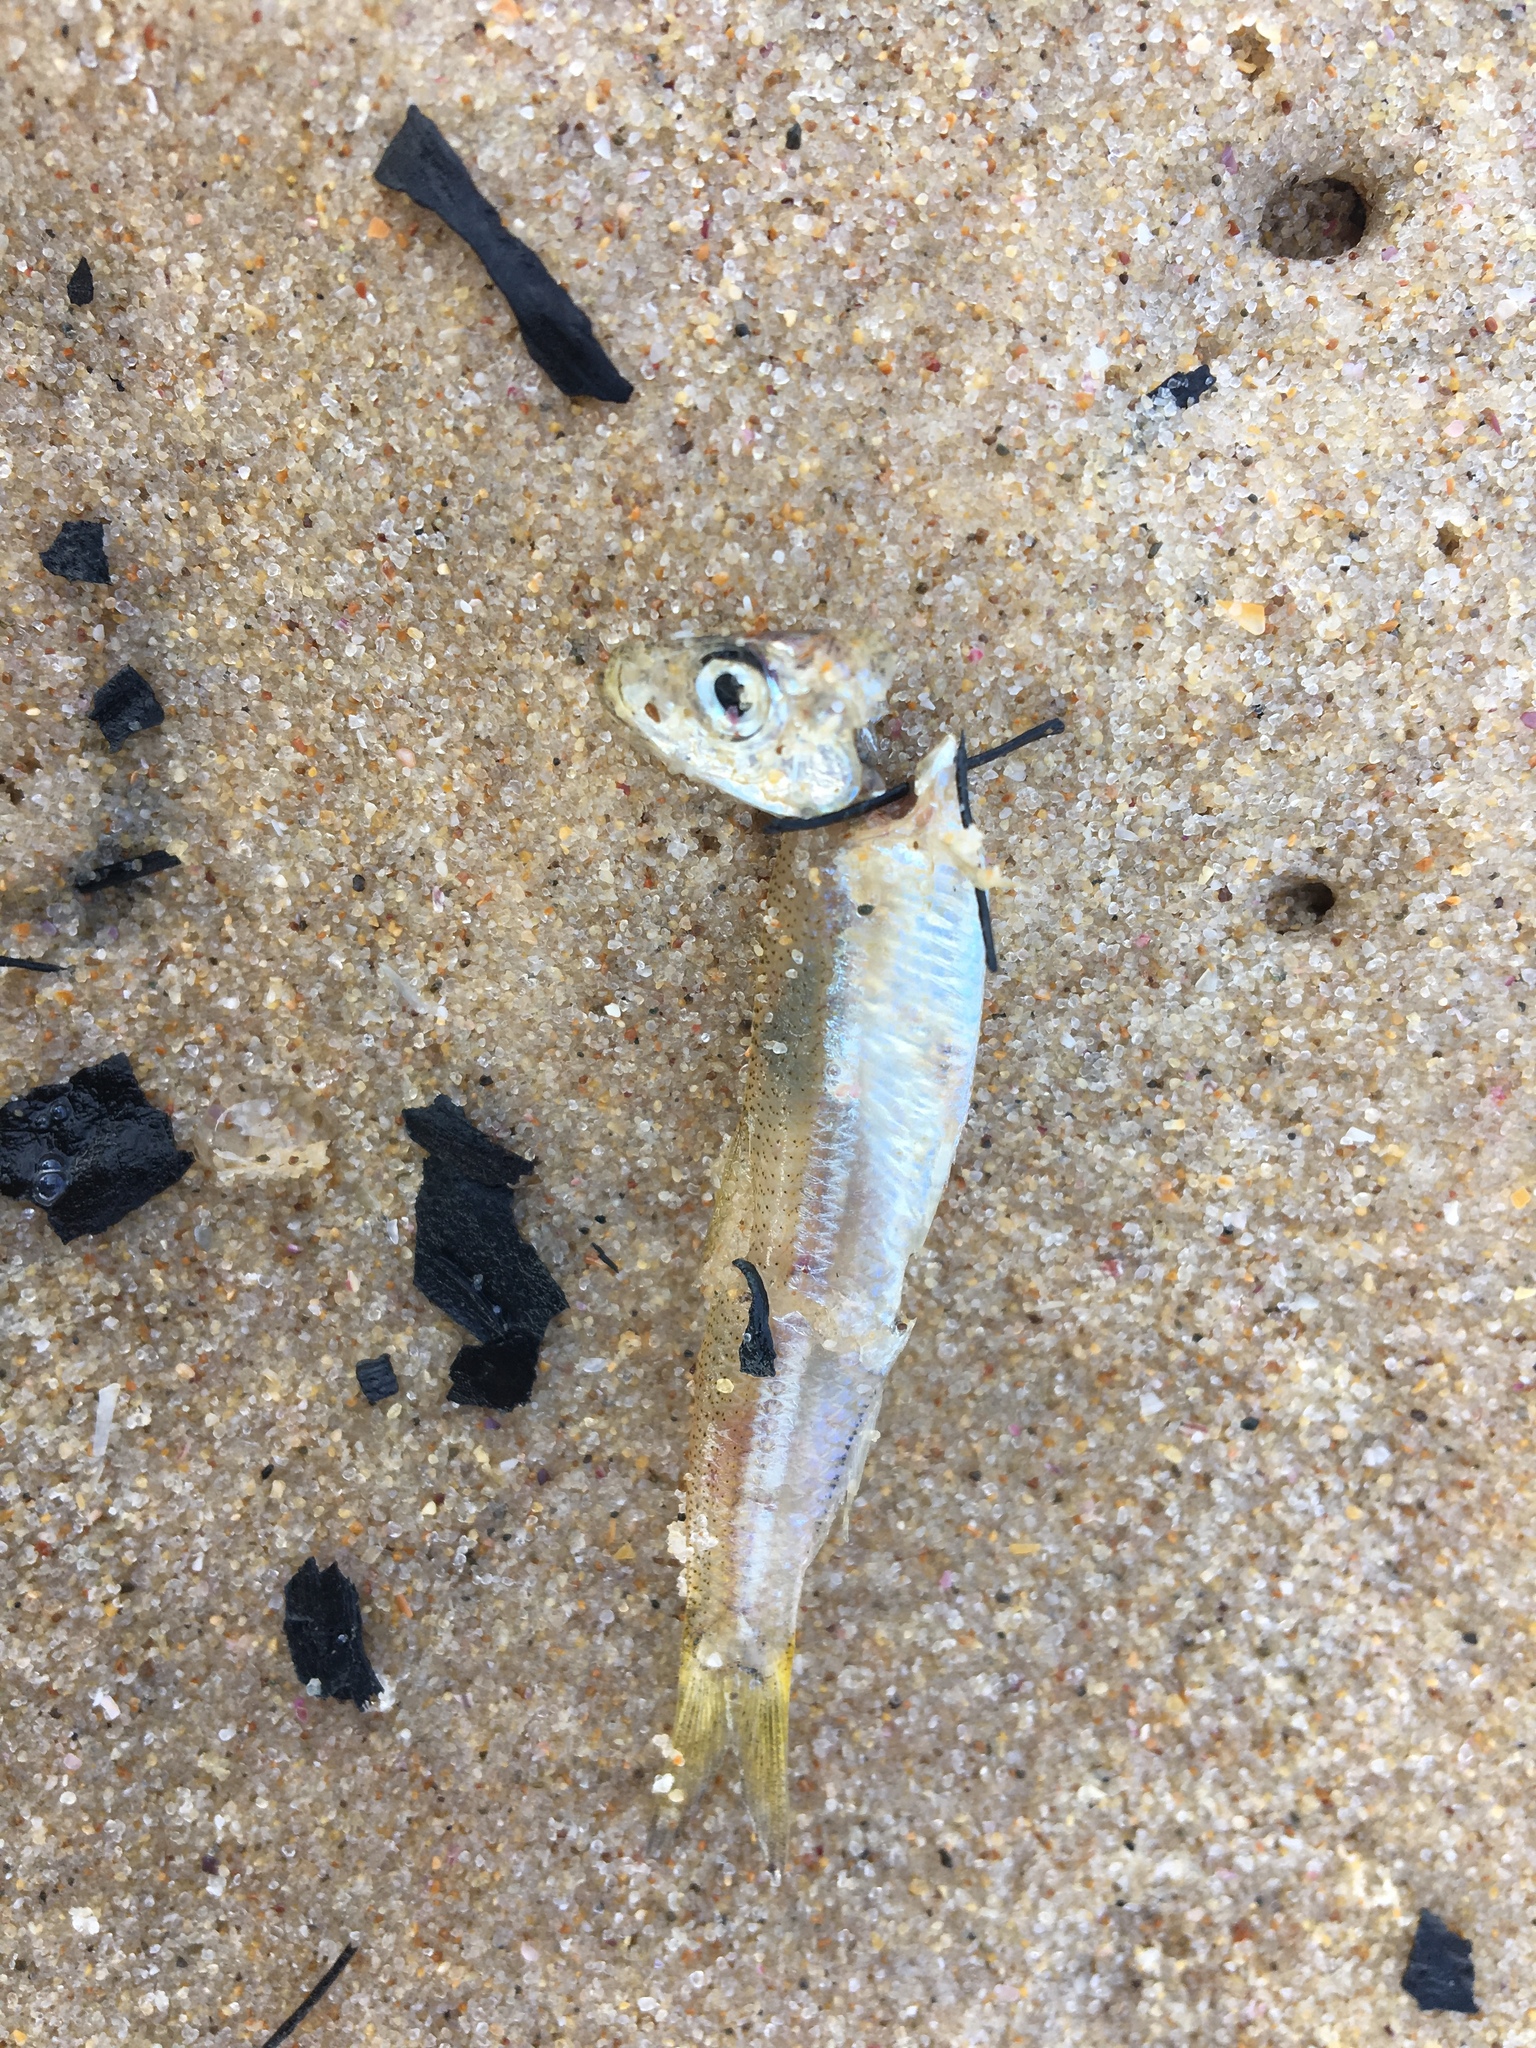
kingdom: Animalia
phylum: Chordata
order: Clupeiformes
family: Clupeidae
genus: Hyperlophus
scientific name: Hyperlophus vittatus
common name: Sandy sprat
